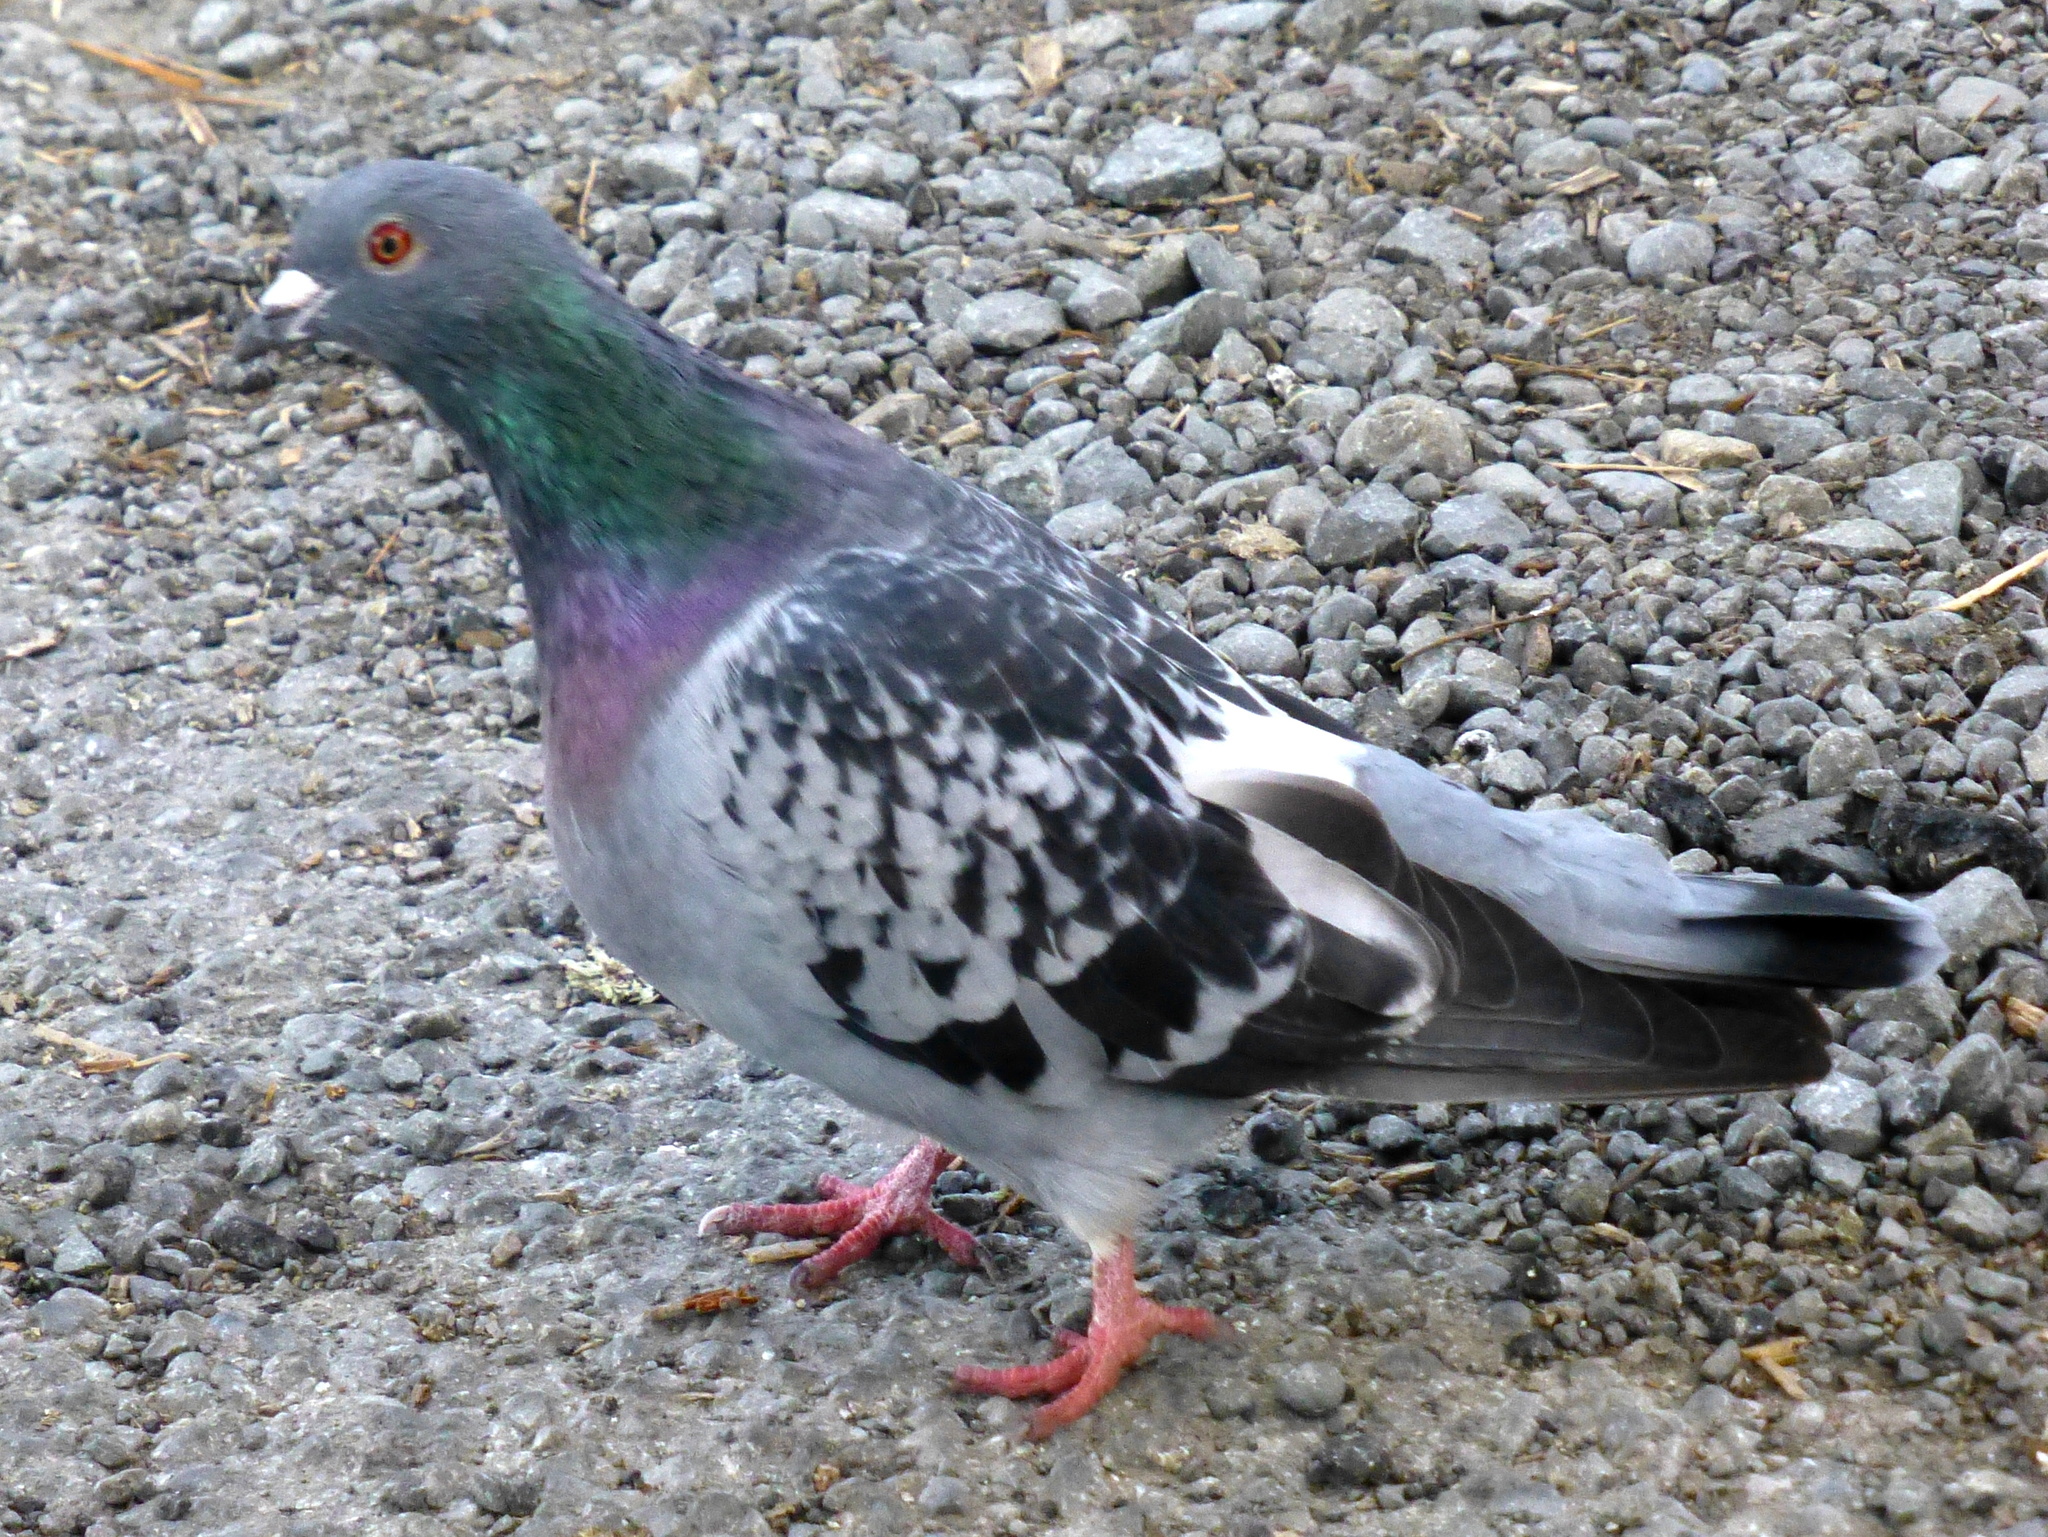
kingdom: Animalia
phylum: Chordata
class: Aves
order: Columbiformes
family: Columbidae
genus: Columba
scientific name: Columba livia
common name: Rock pigeon
